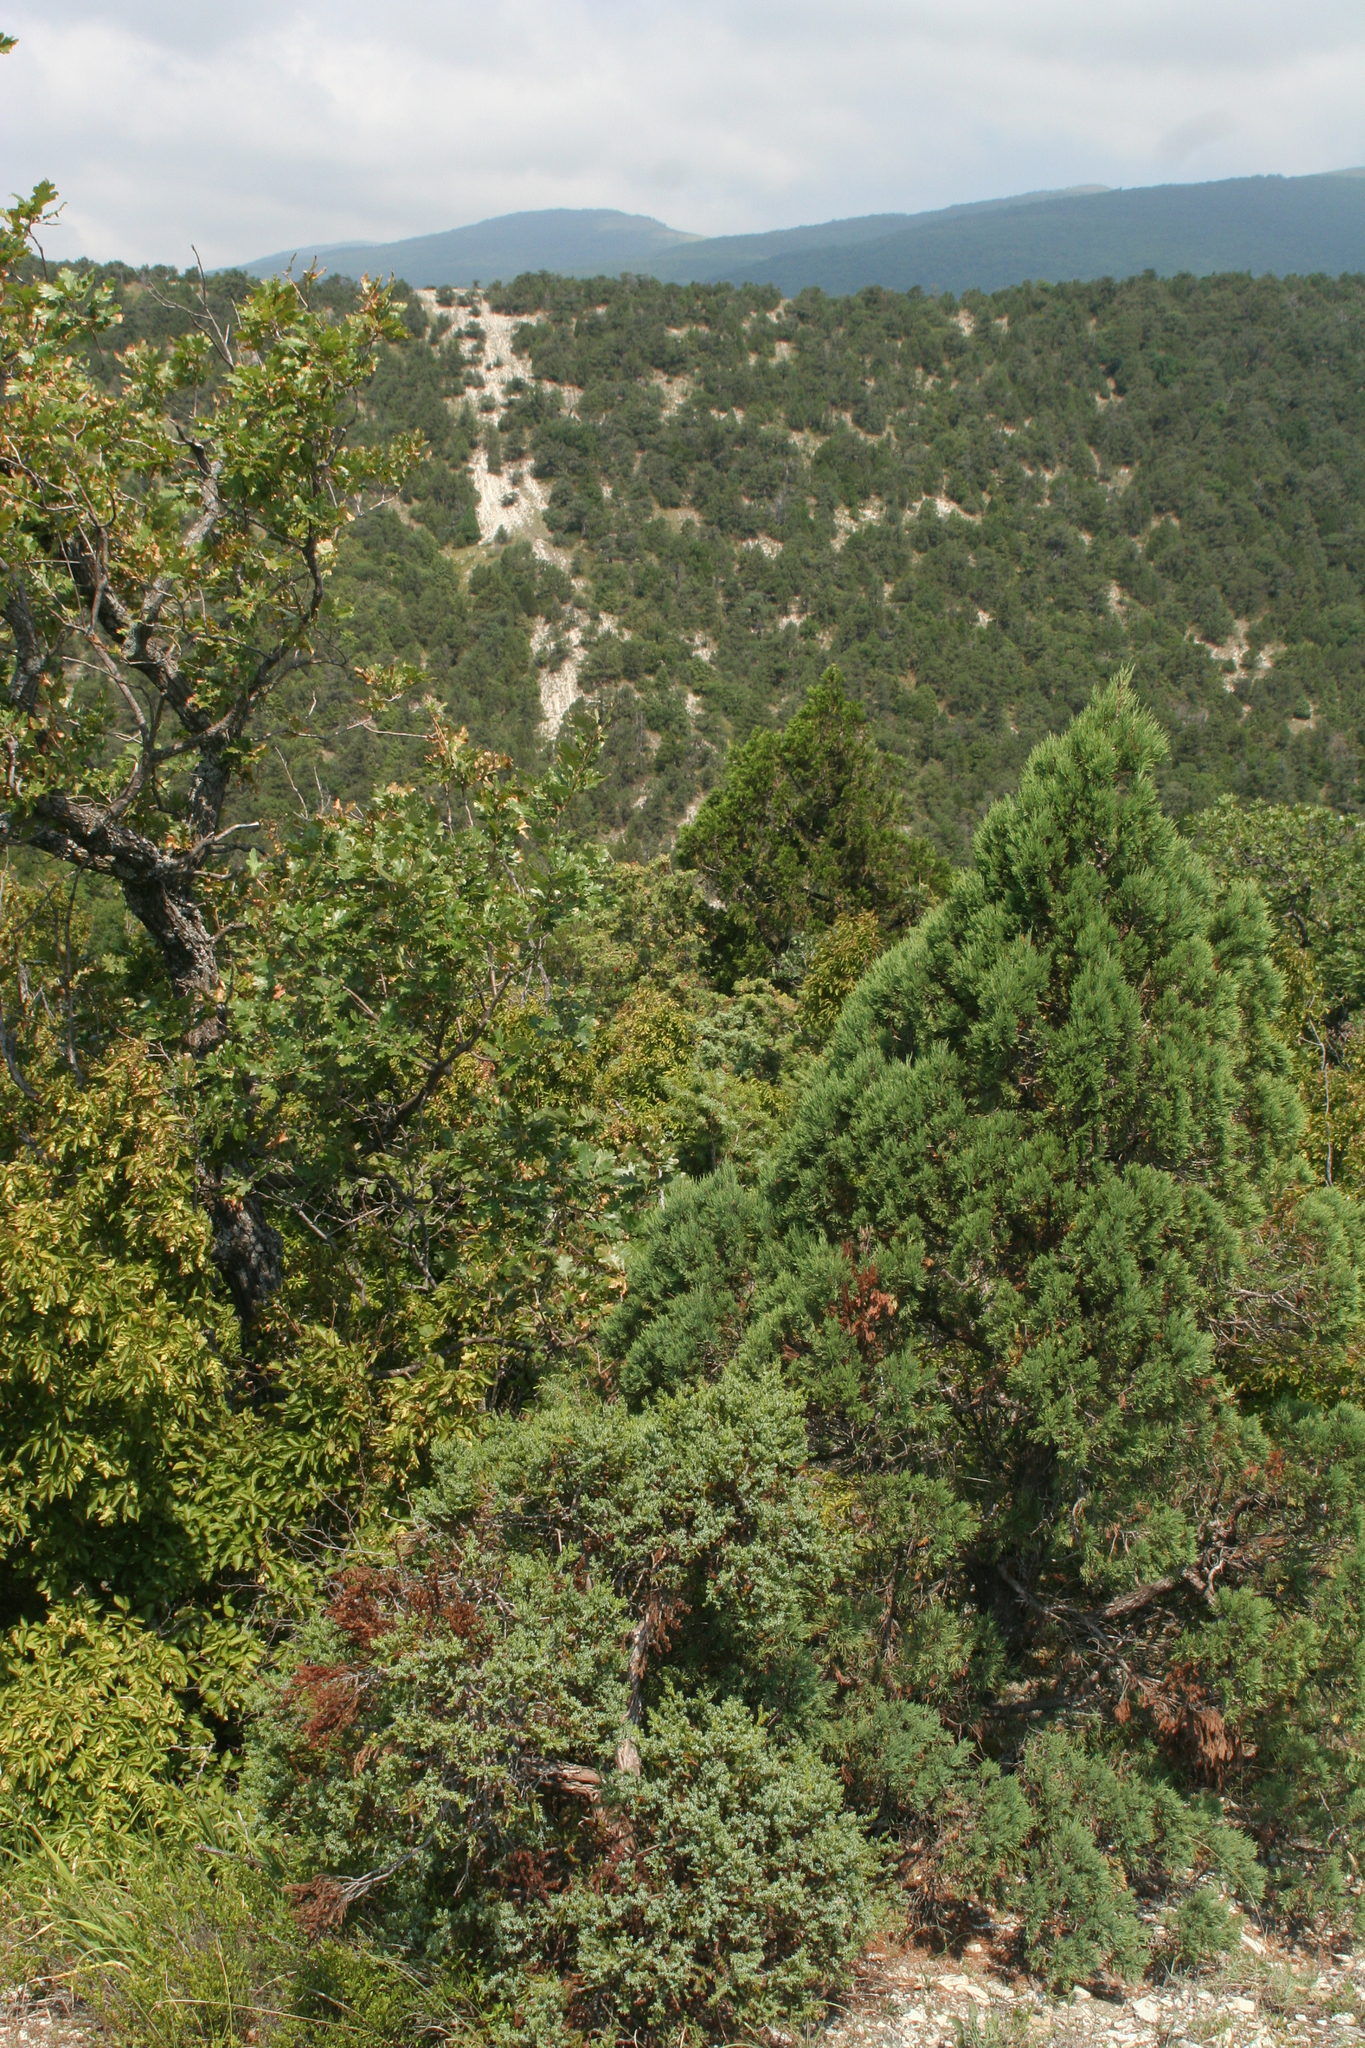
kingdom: Plantae
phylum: Tracheophyta
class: Pinopsida
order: Pinales
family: Cupressaceae
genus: Juniperus
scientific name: Juniperus excelsa
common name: Crimean juniper
